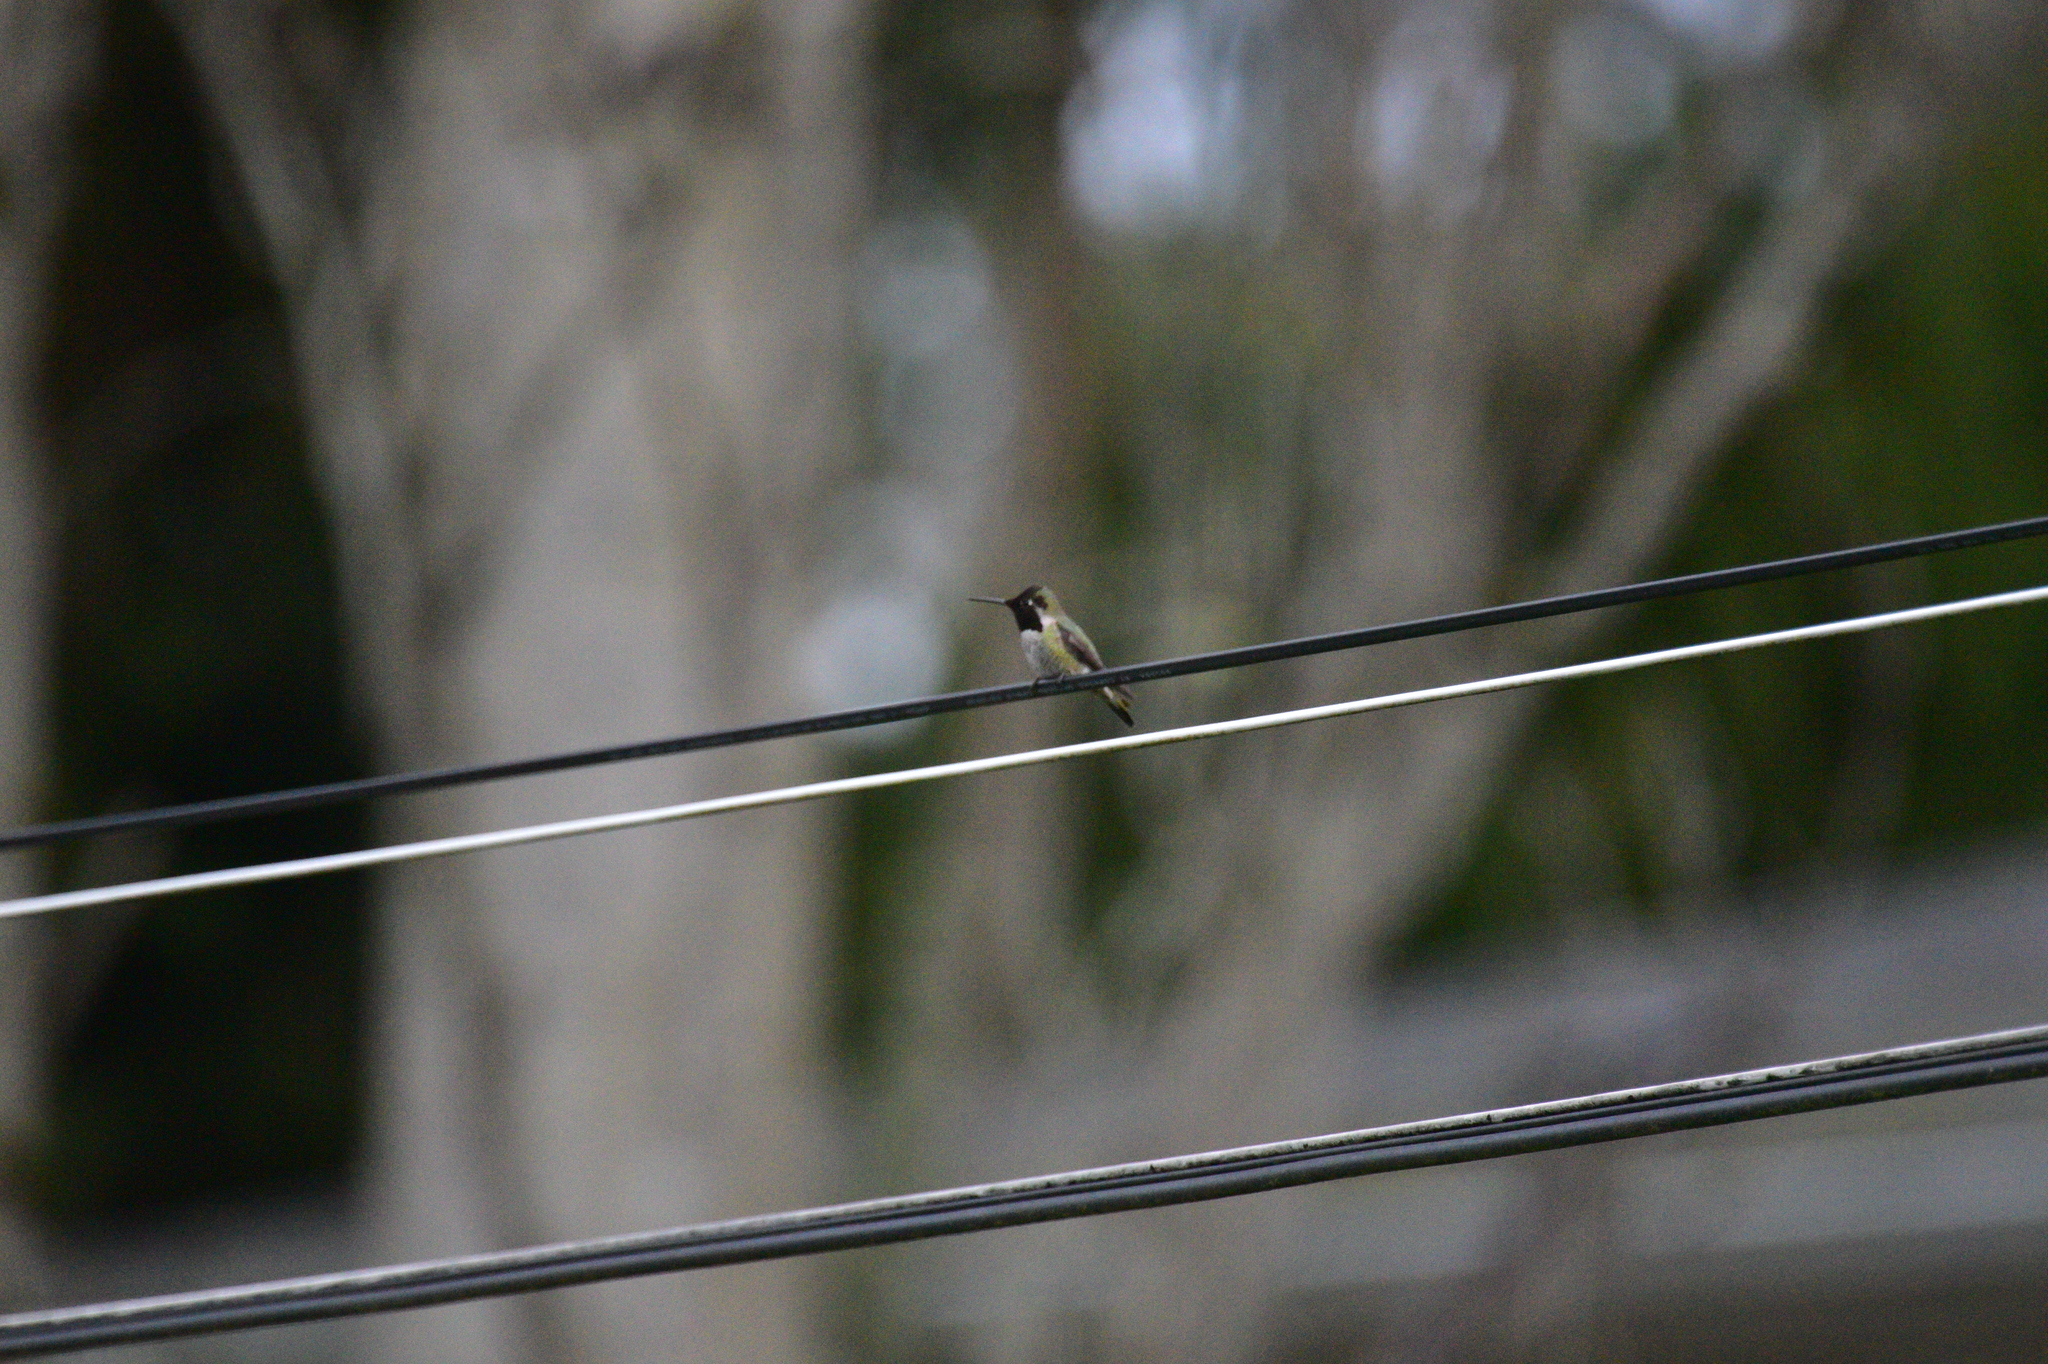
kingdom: Animalia
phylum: Chordata
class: Aves
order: Apodiformes
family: Trochilidae
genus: Calypte
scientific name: Calypte anna
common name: Anna's hummingbird
